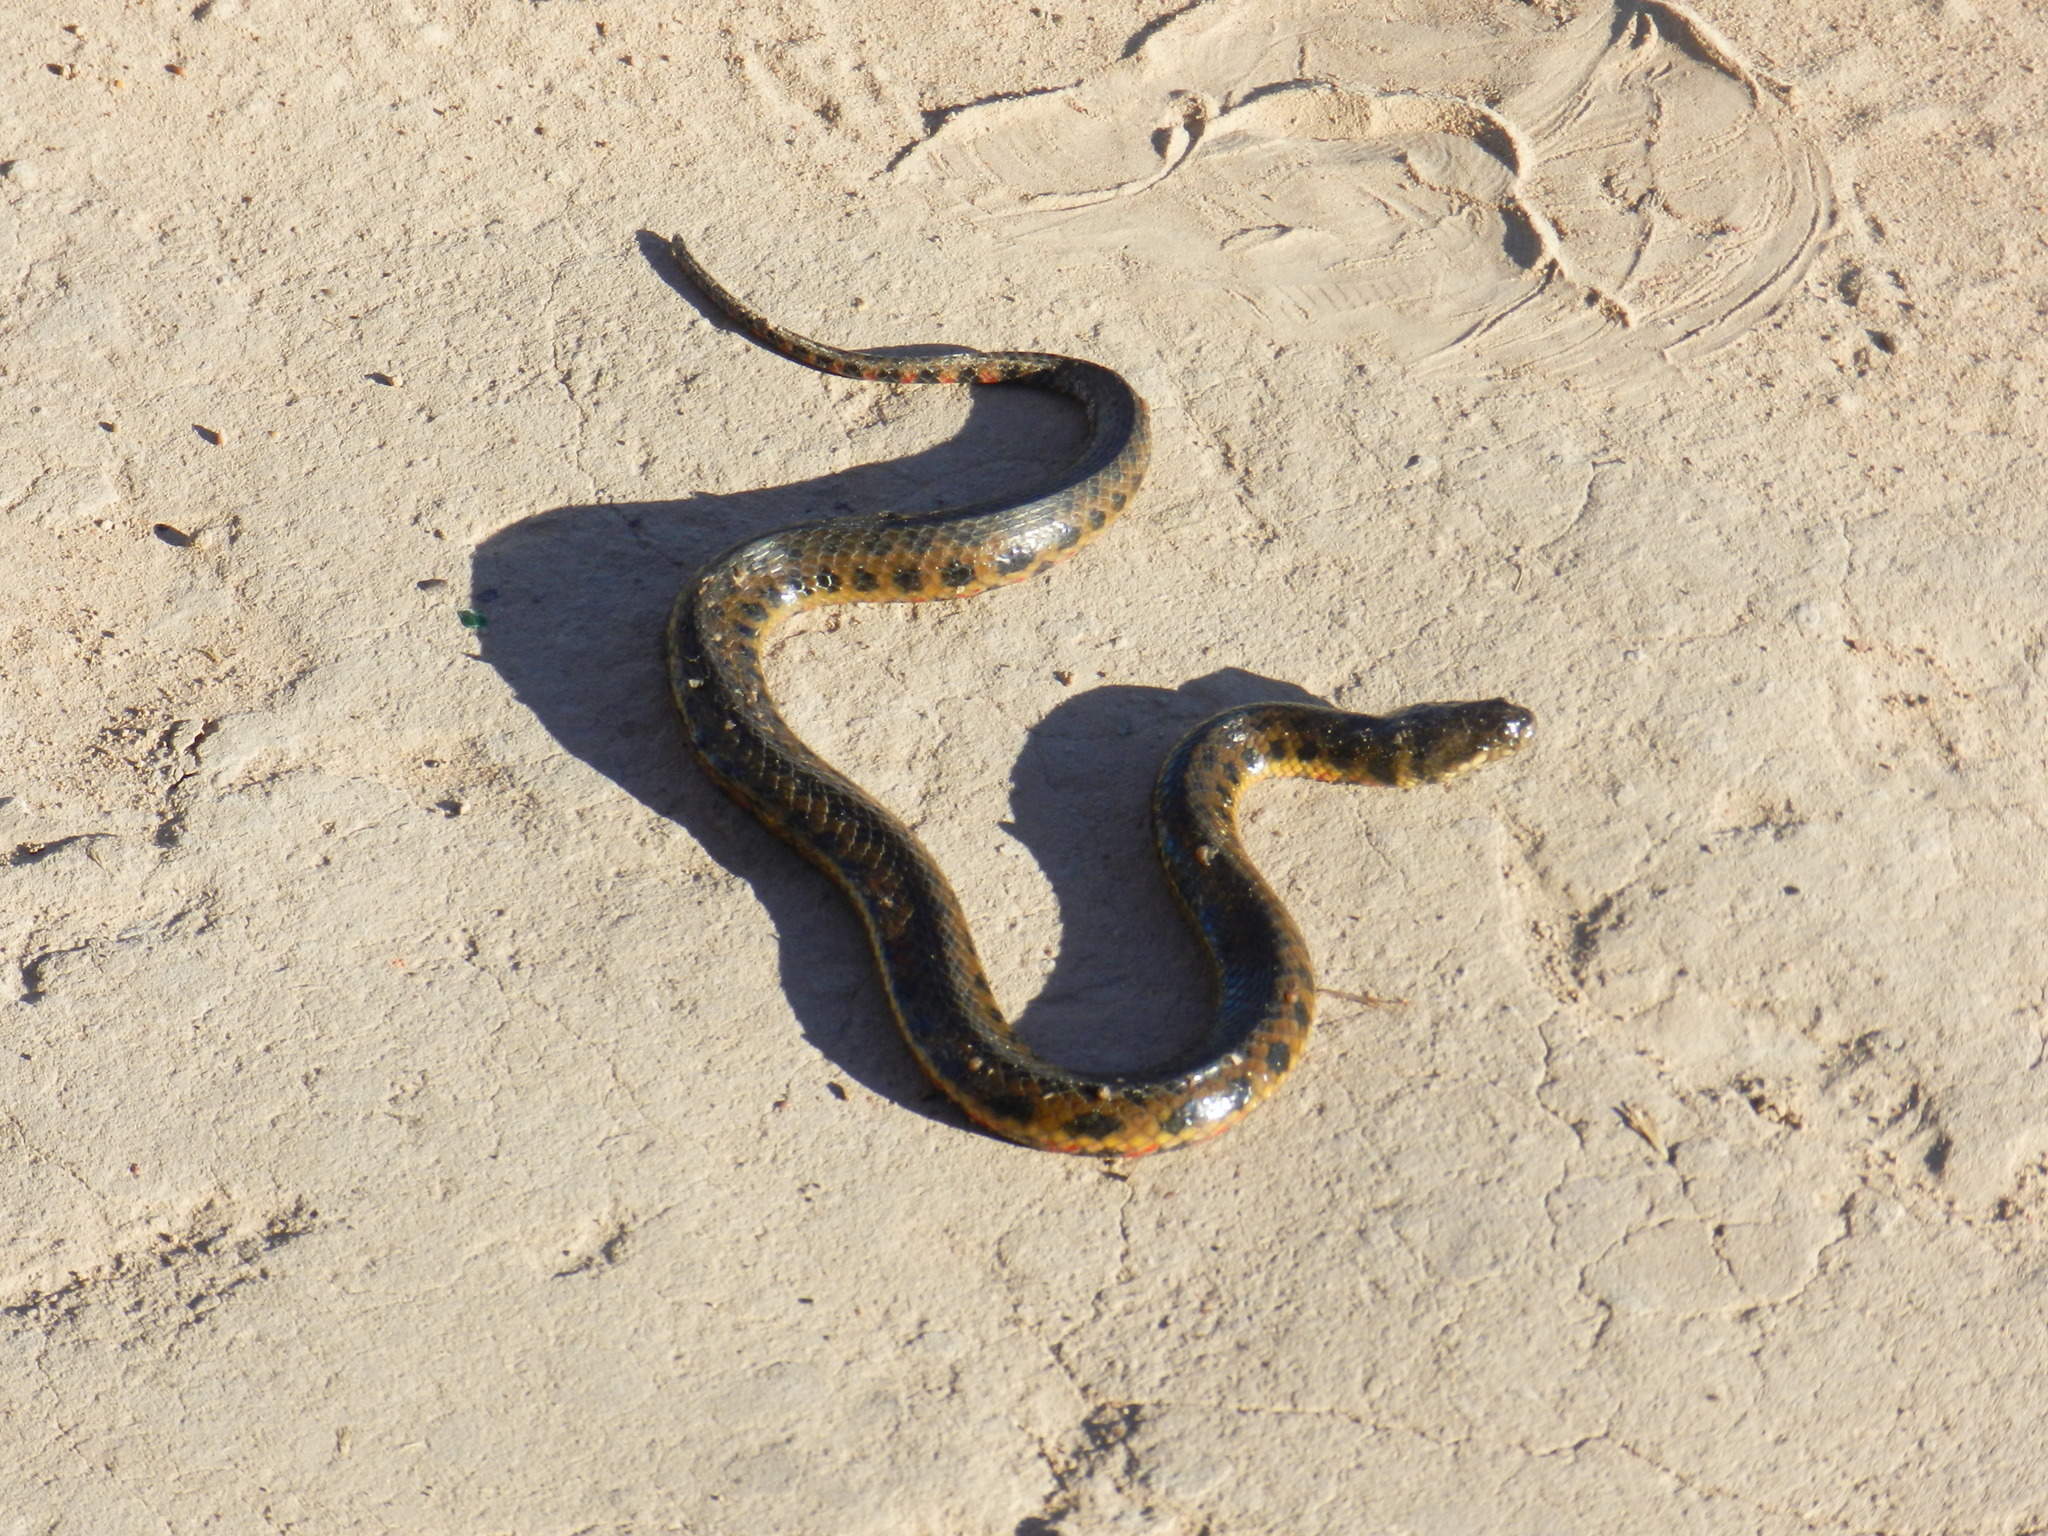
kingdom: Animalia
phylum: Chordata
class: Squamata
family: Colubridae
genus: Helicops
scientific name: Helicops leopardinus
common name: Leopard keelback
